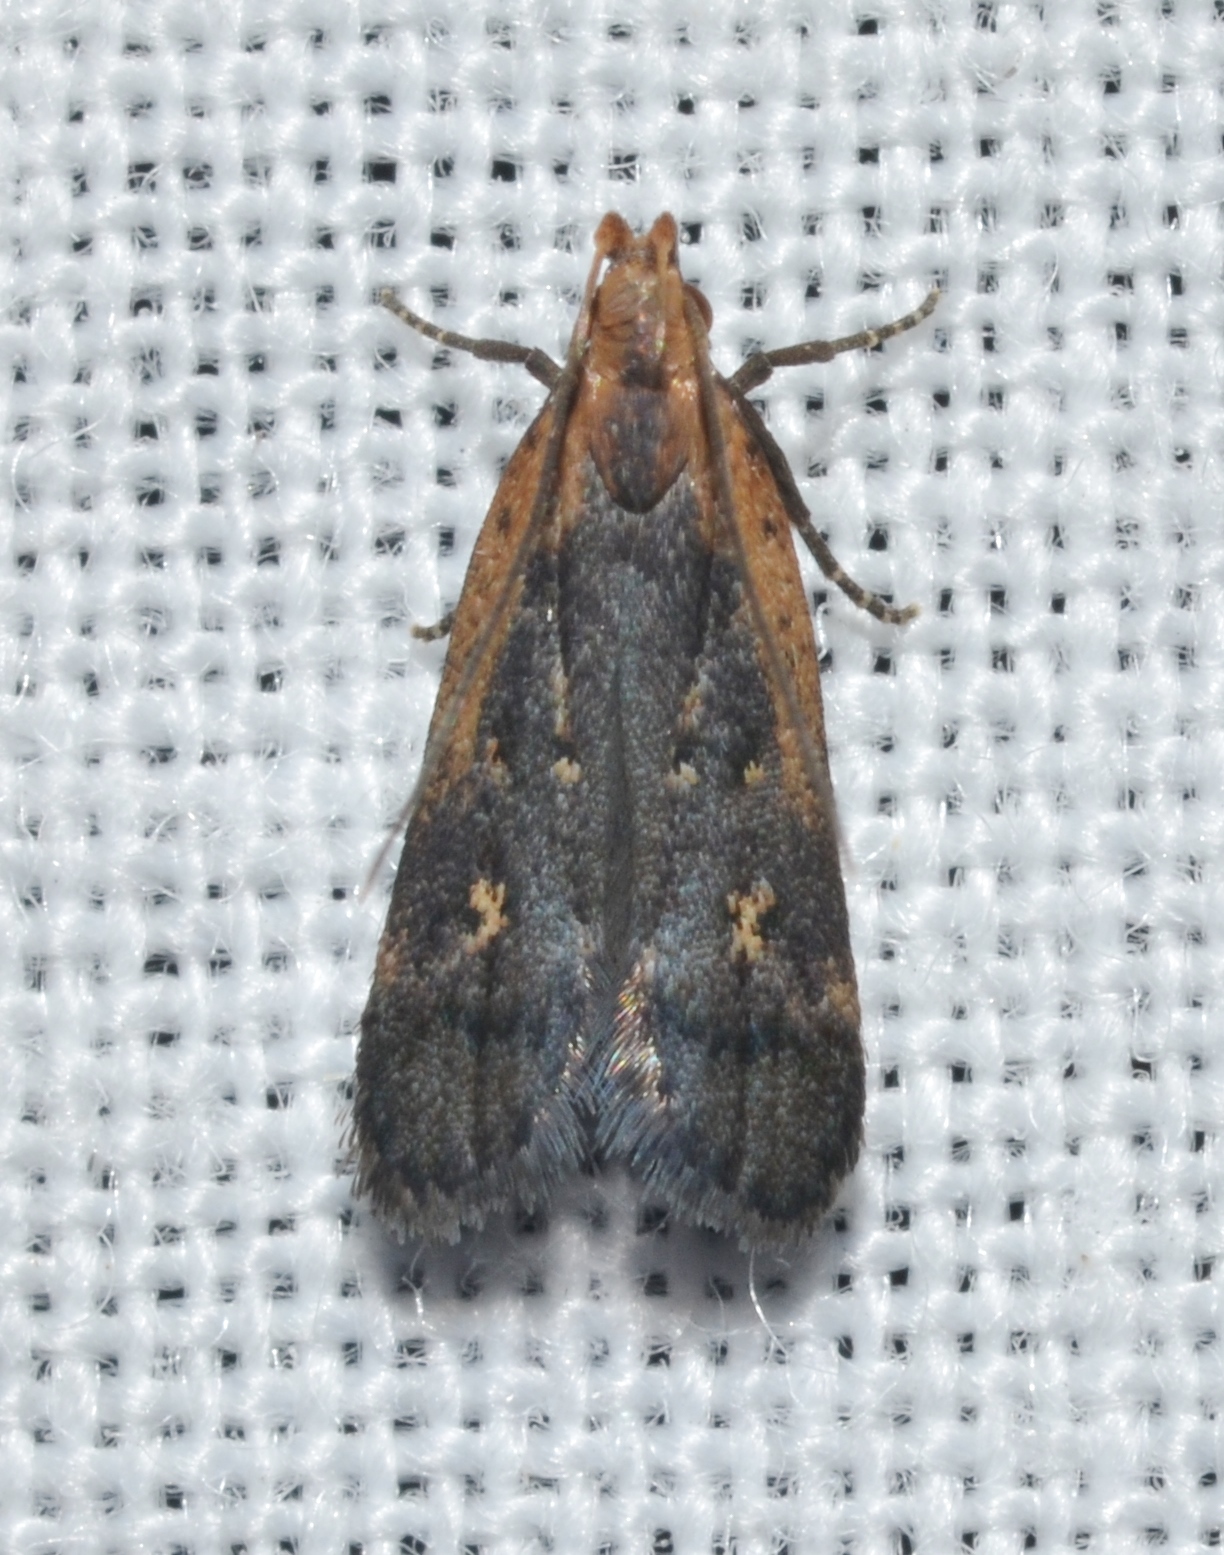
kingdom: Animalia
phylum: Arthropoda
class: Insecta
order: Lepidoptera
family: Gelechiidae
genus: Dichomeris
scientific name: Dichomeris copa
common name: Copa dichomeris moth
